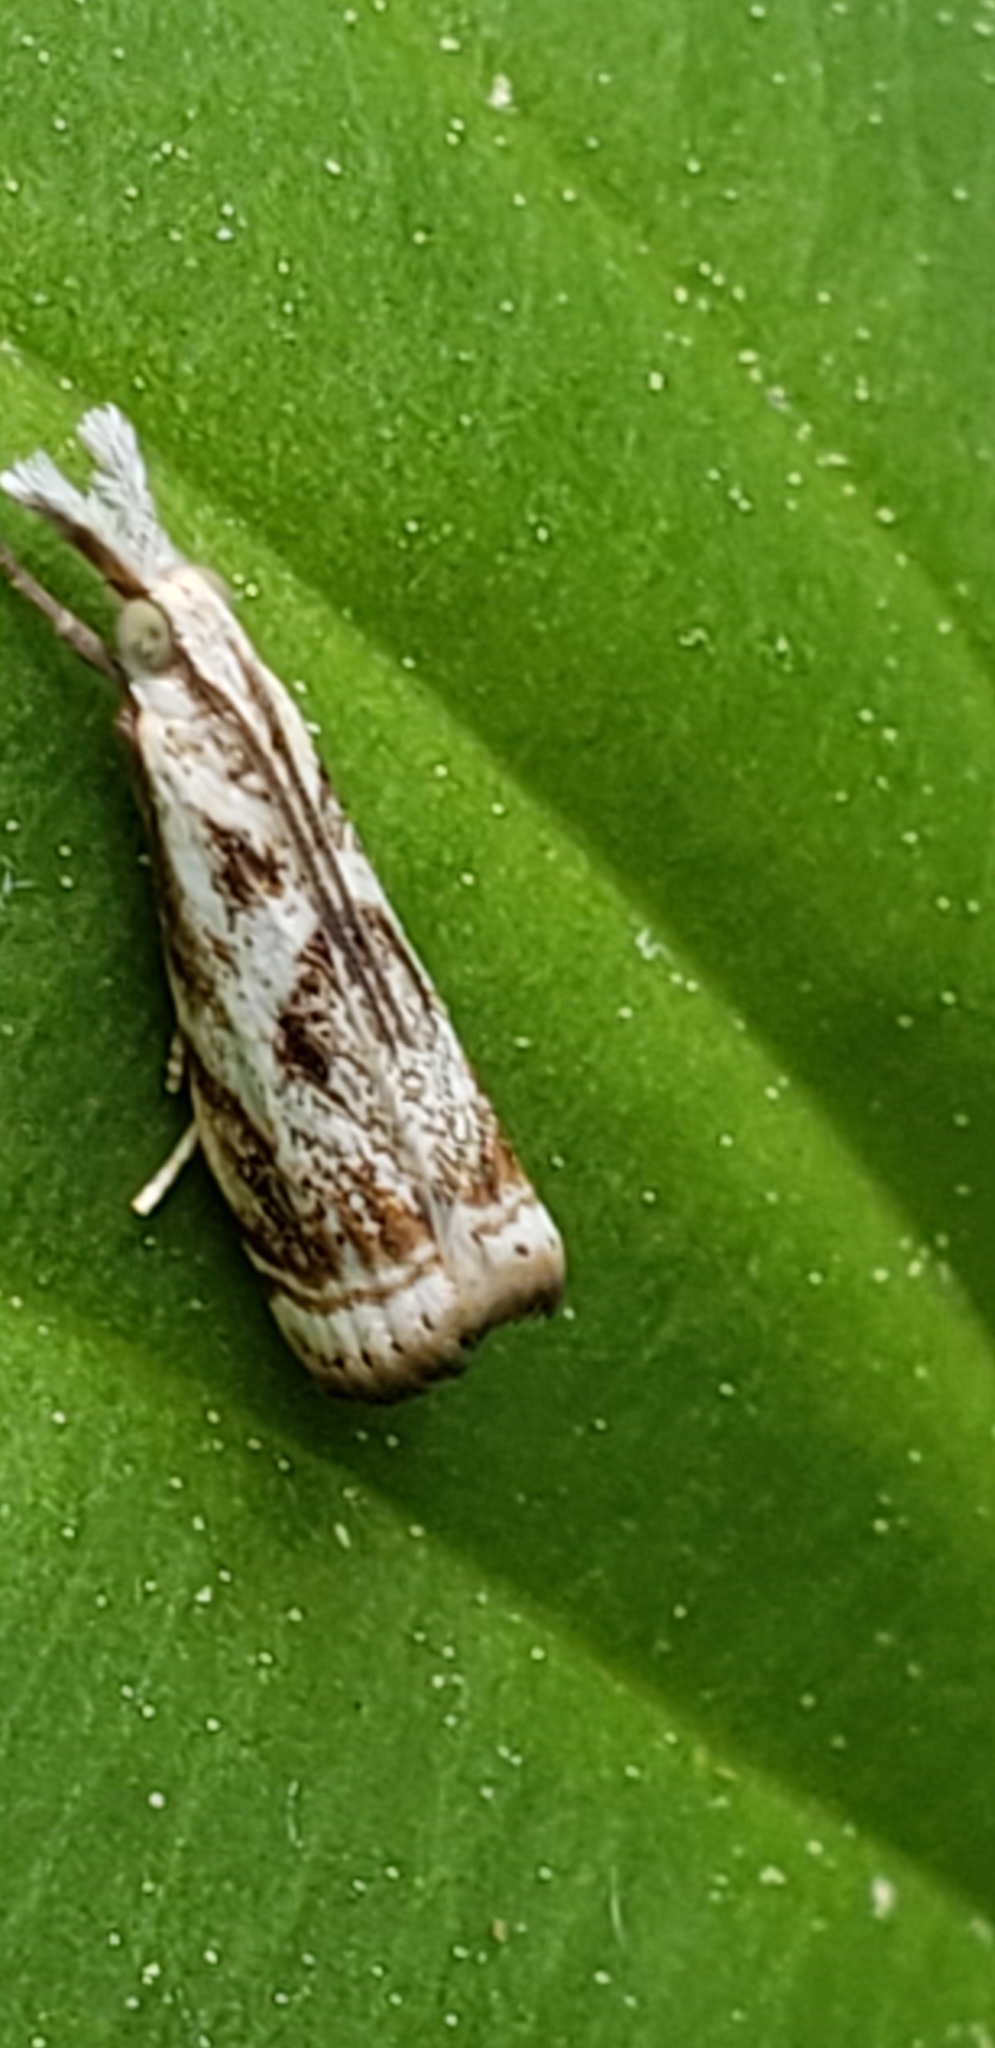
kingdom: Animalia
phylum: Arthropoda
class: Insecta
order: Lepidoptera
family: Crambidae
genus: Microcrambus
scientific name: Microcrambus elegans
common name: Elegant grass-veneer
